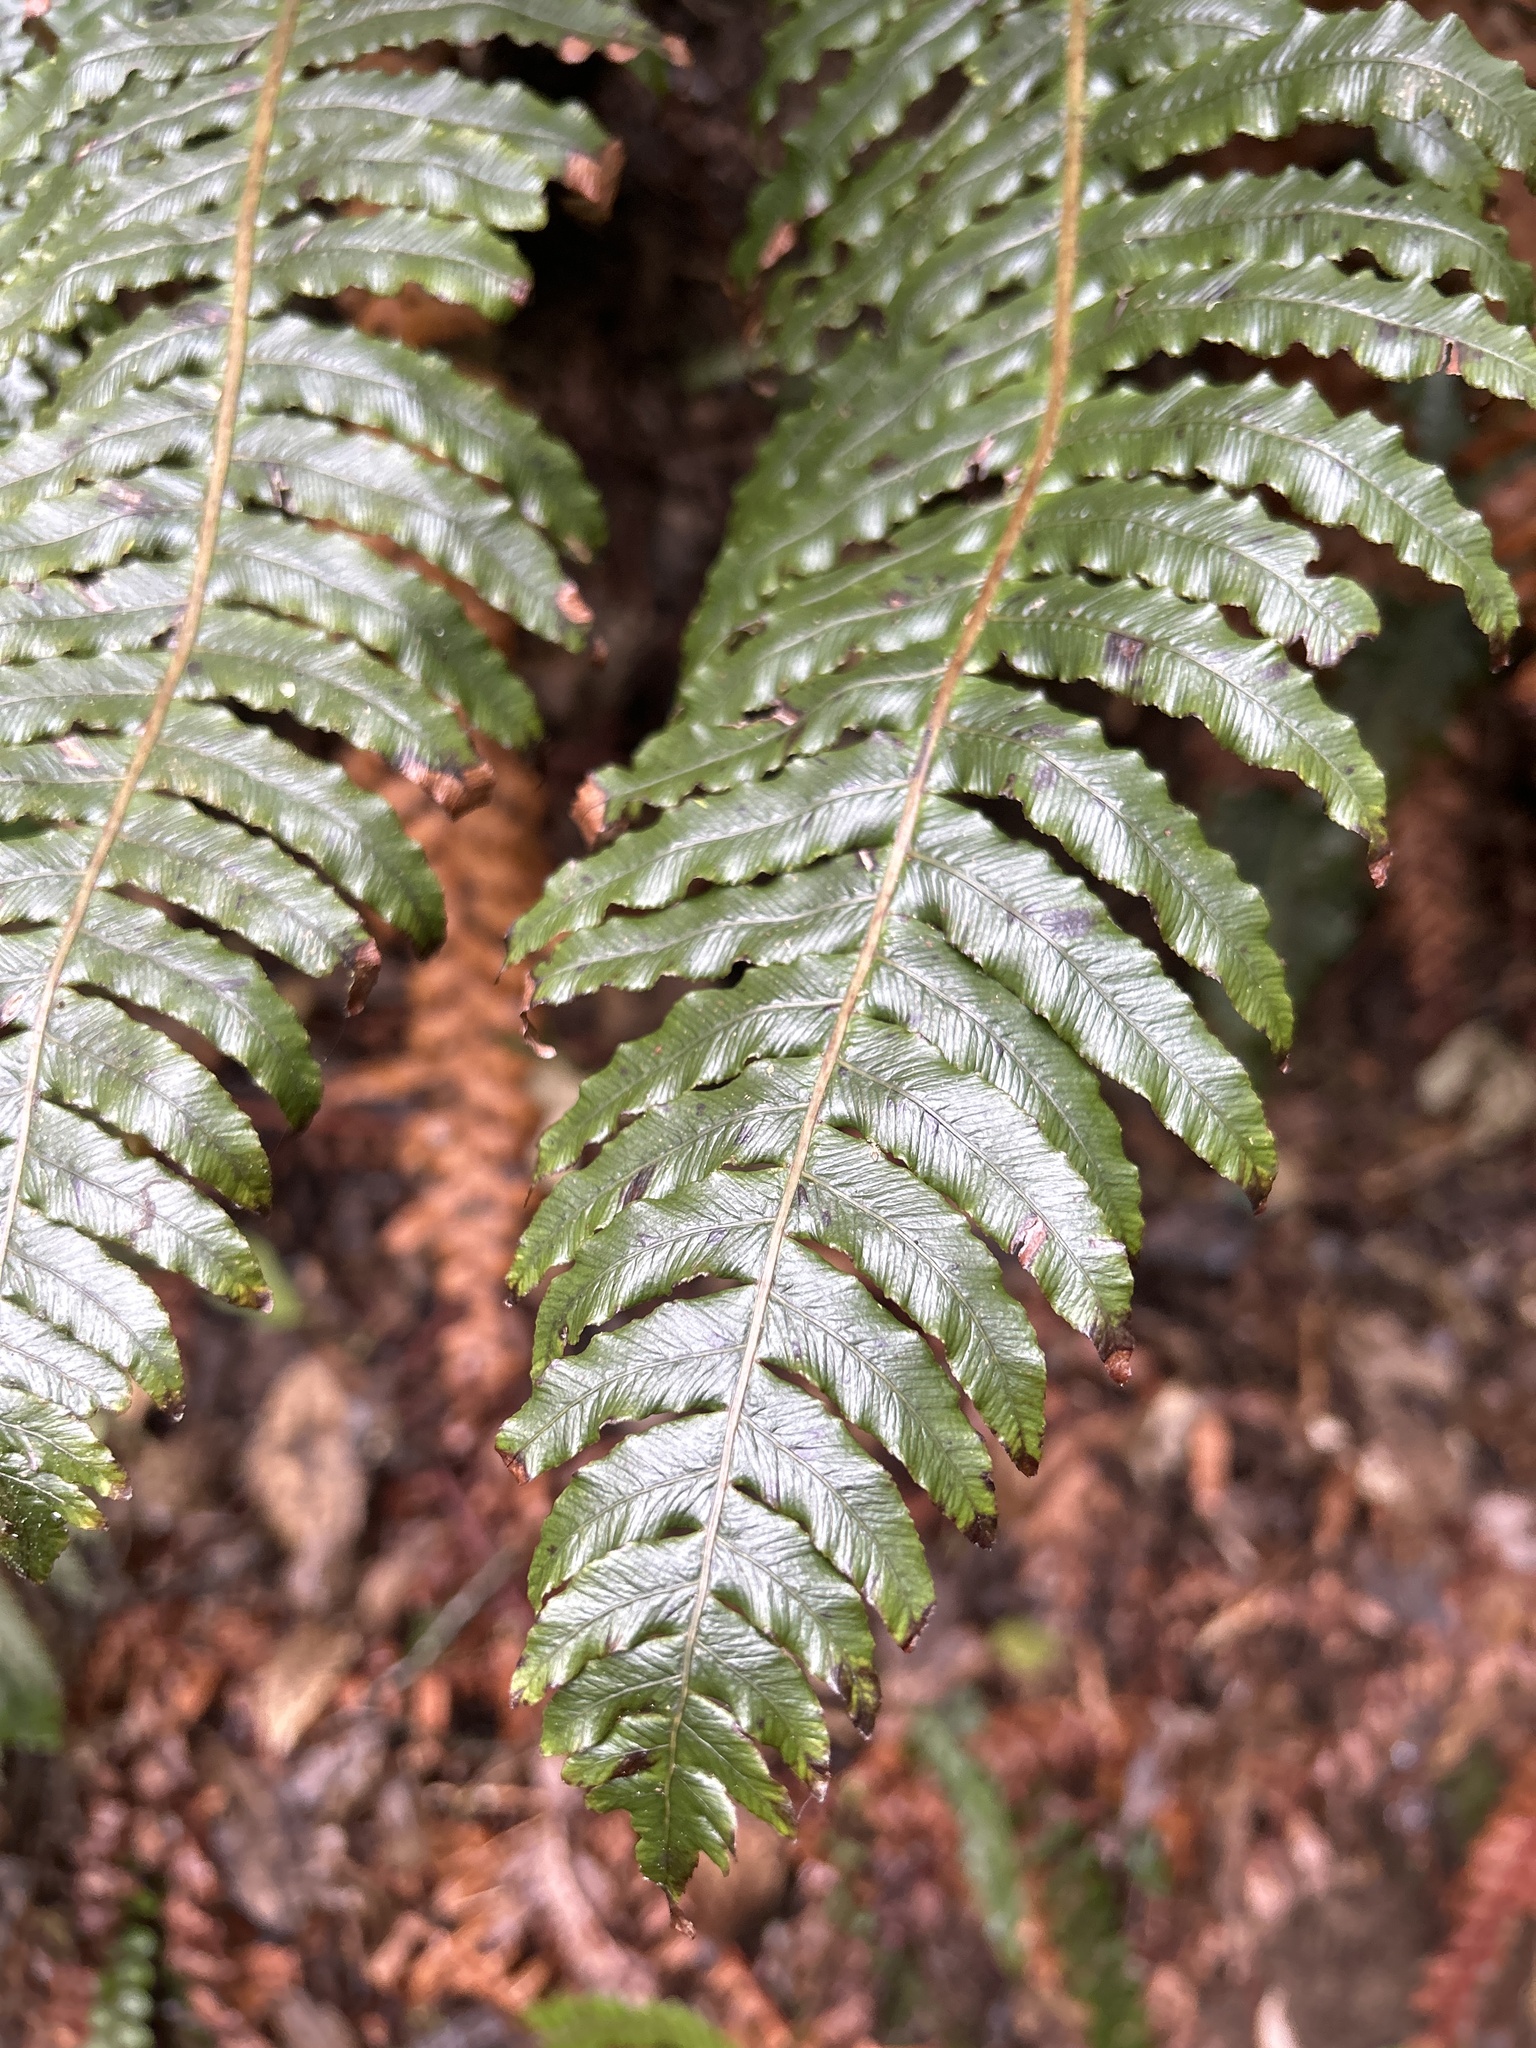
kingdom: Plantae
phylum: Tracheophyta
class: Polypodiopsida
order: Polypodiales
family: Blechnaceae
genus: Lomaria
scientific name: Lomaria discolor
